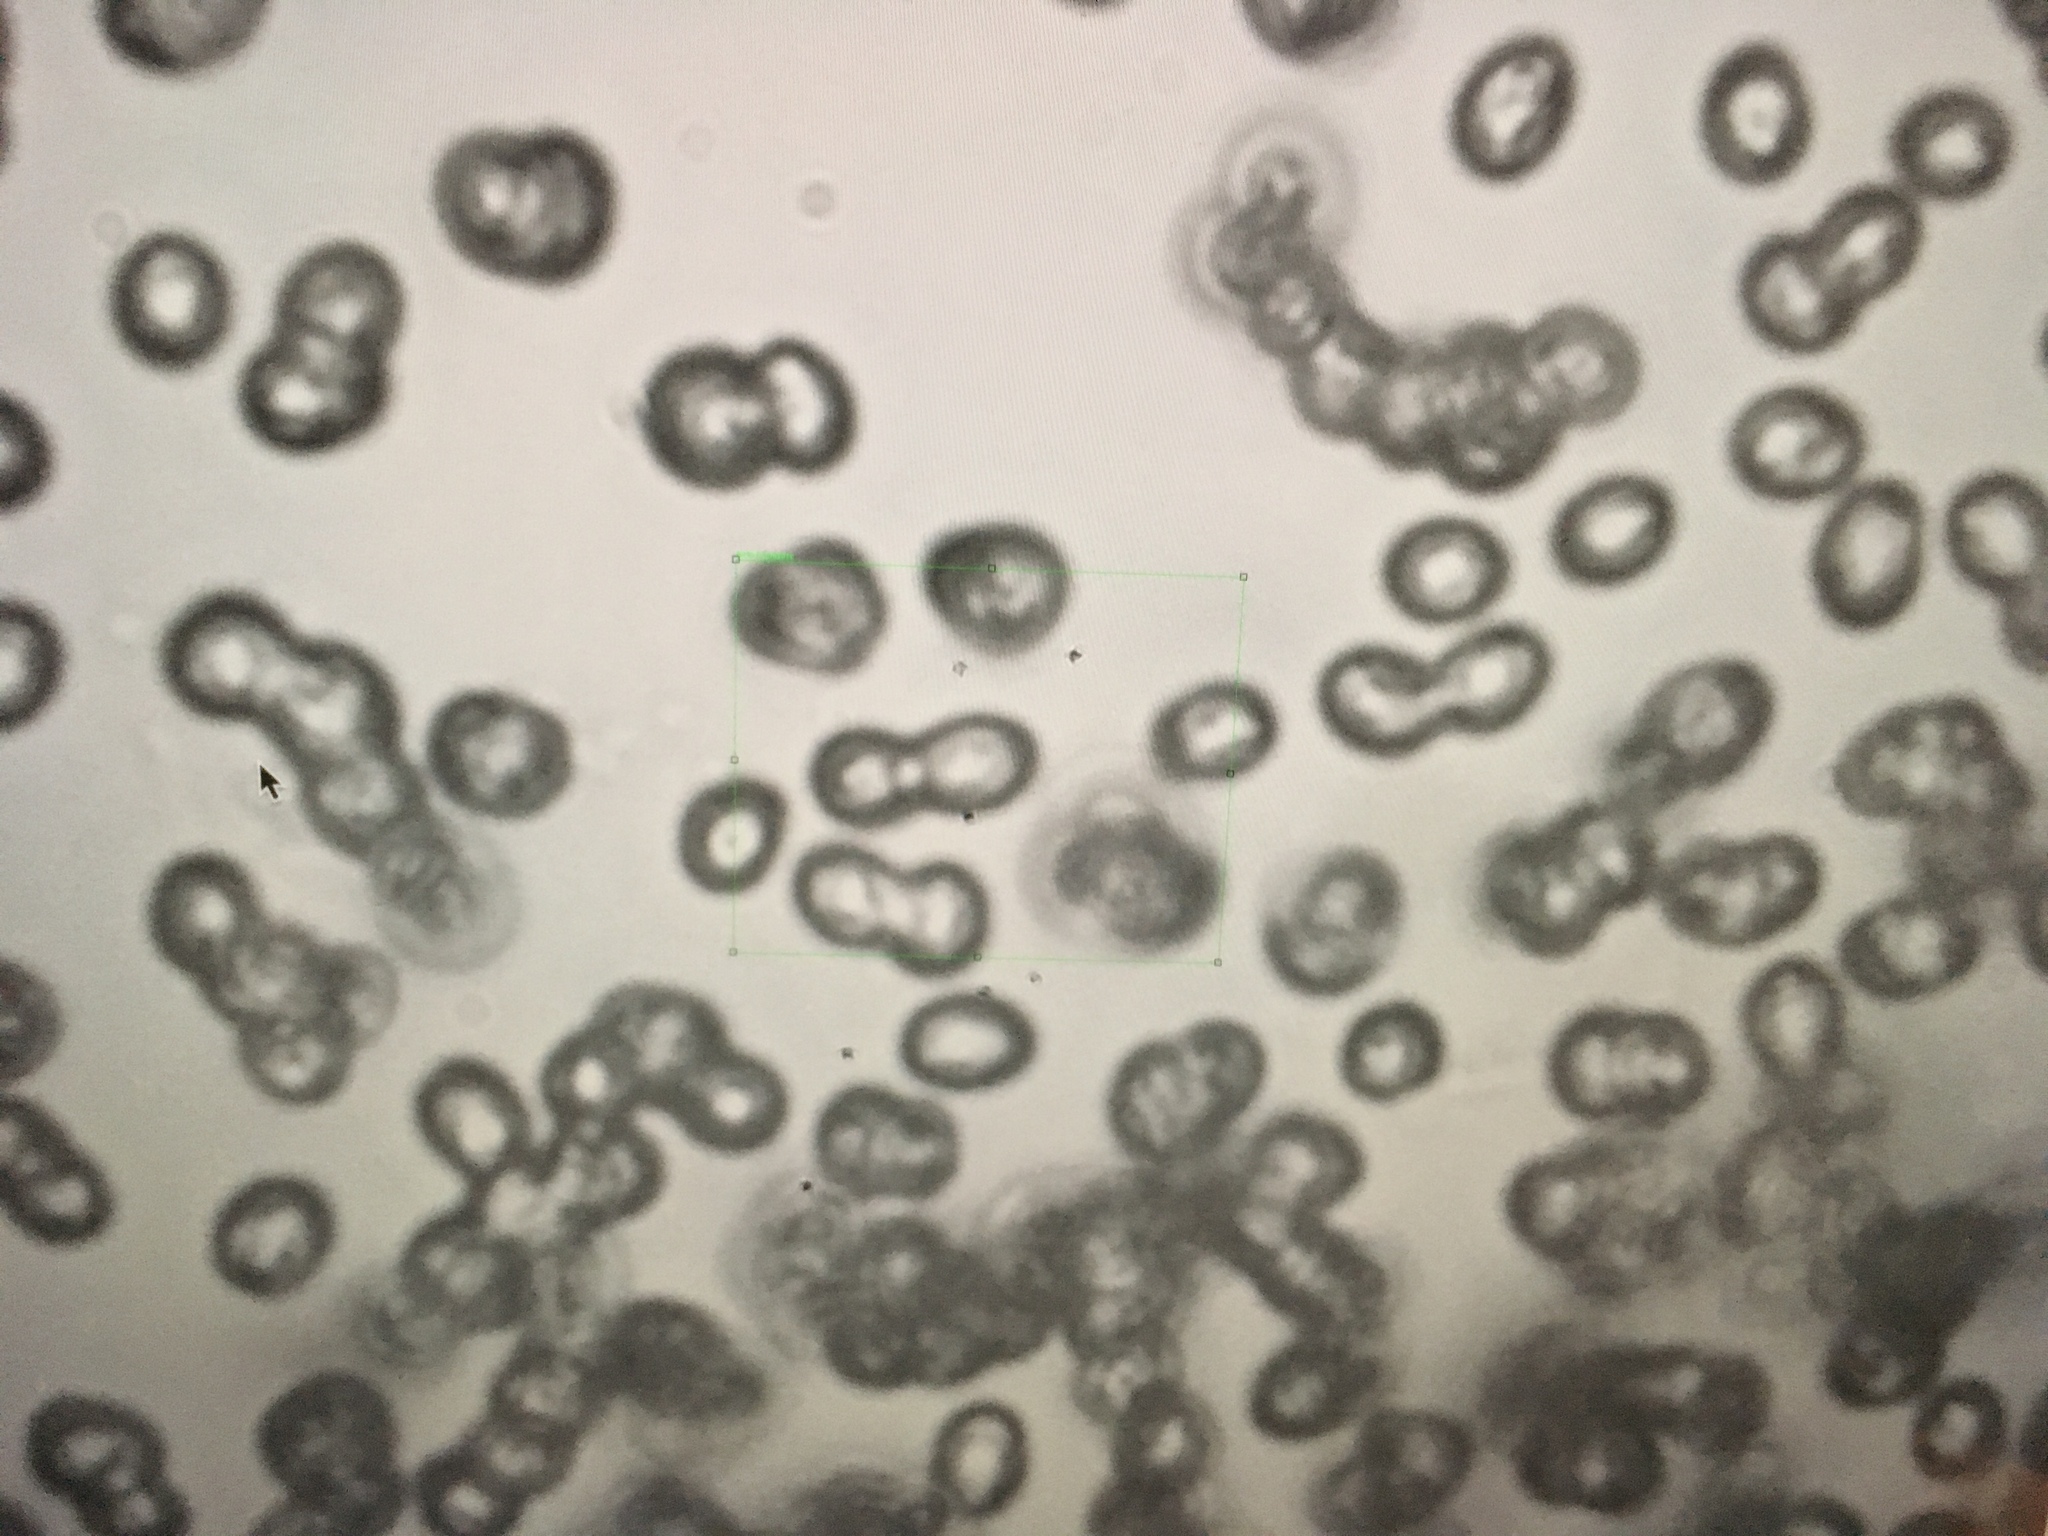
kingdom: Fungi
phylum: Basidiomycota
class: Agaricomycetes
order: Agaricales
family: Tricholomataceae
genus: Tricholomopsis
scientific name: Tricholomopsis scabra
